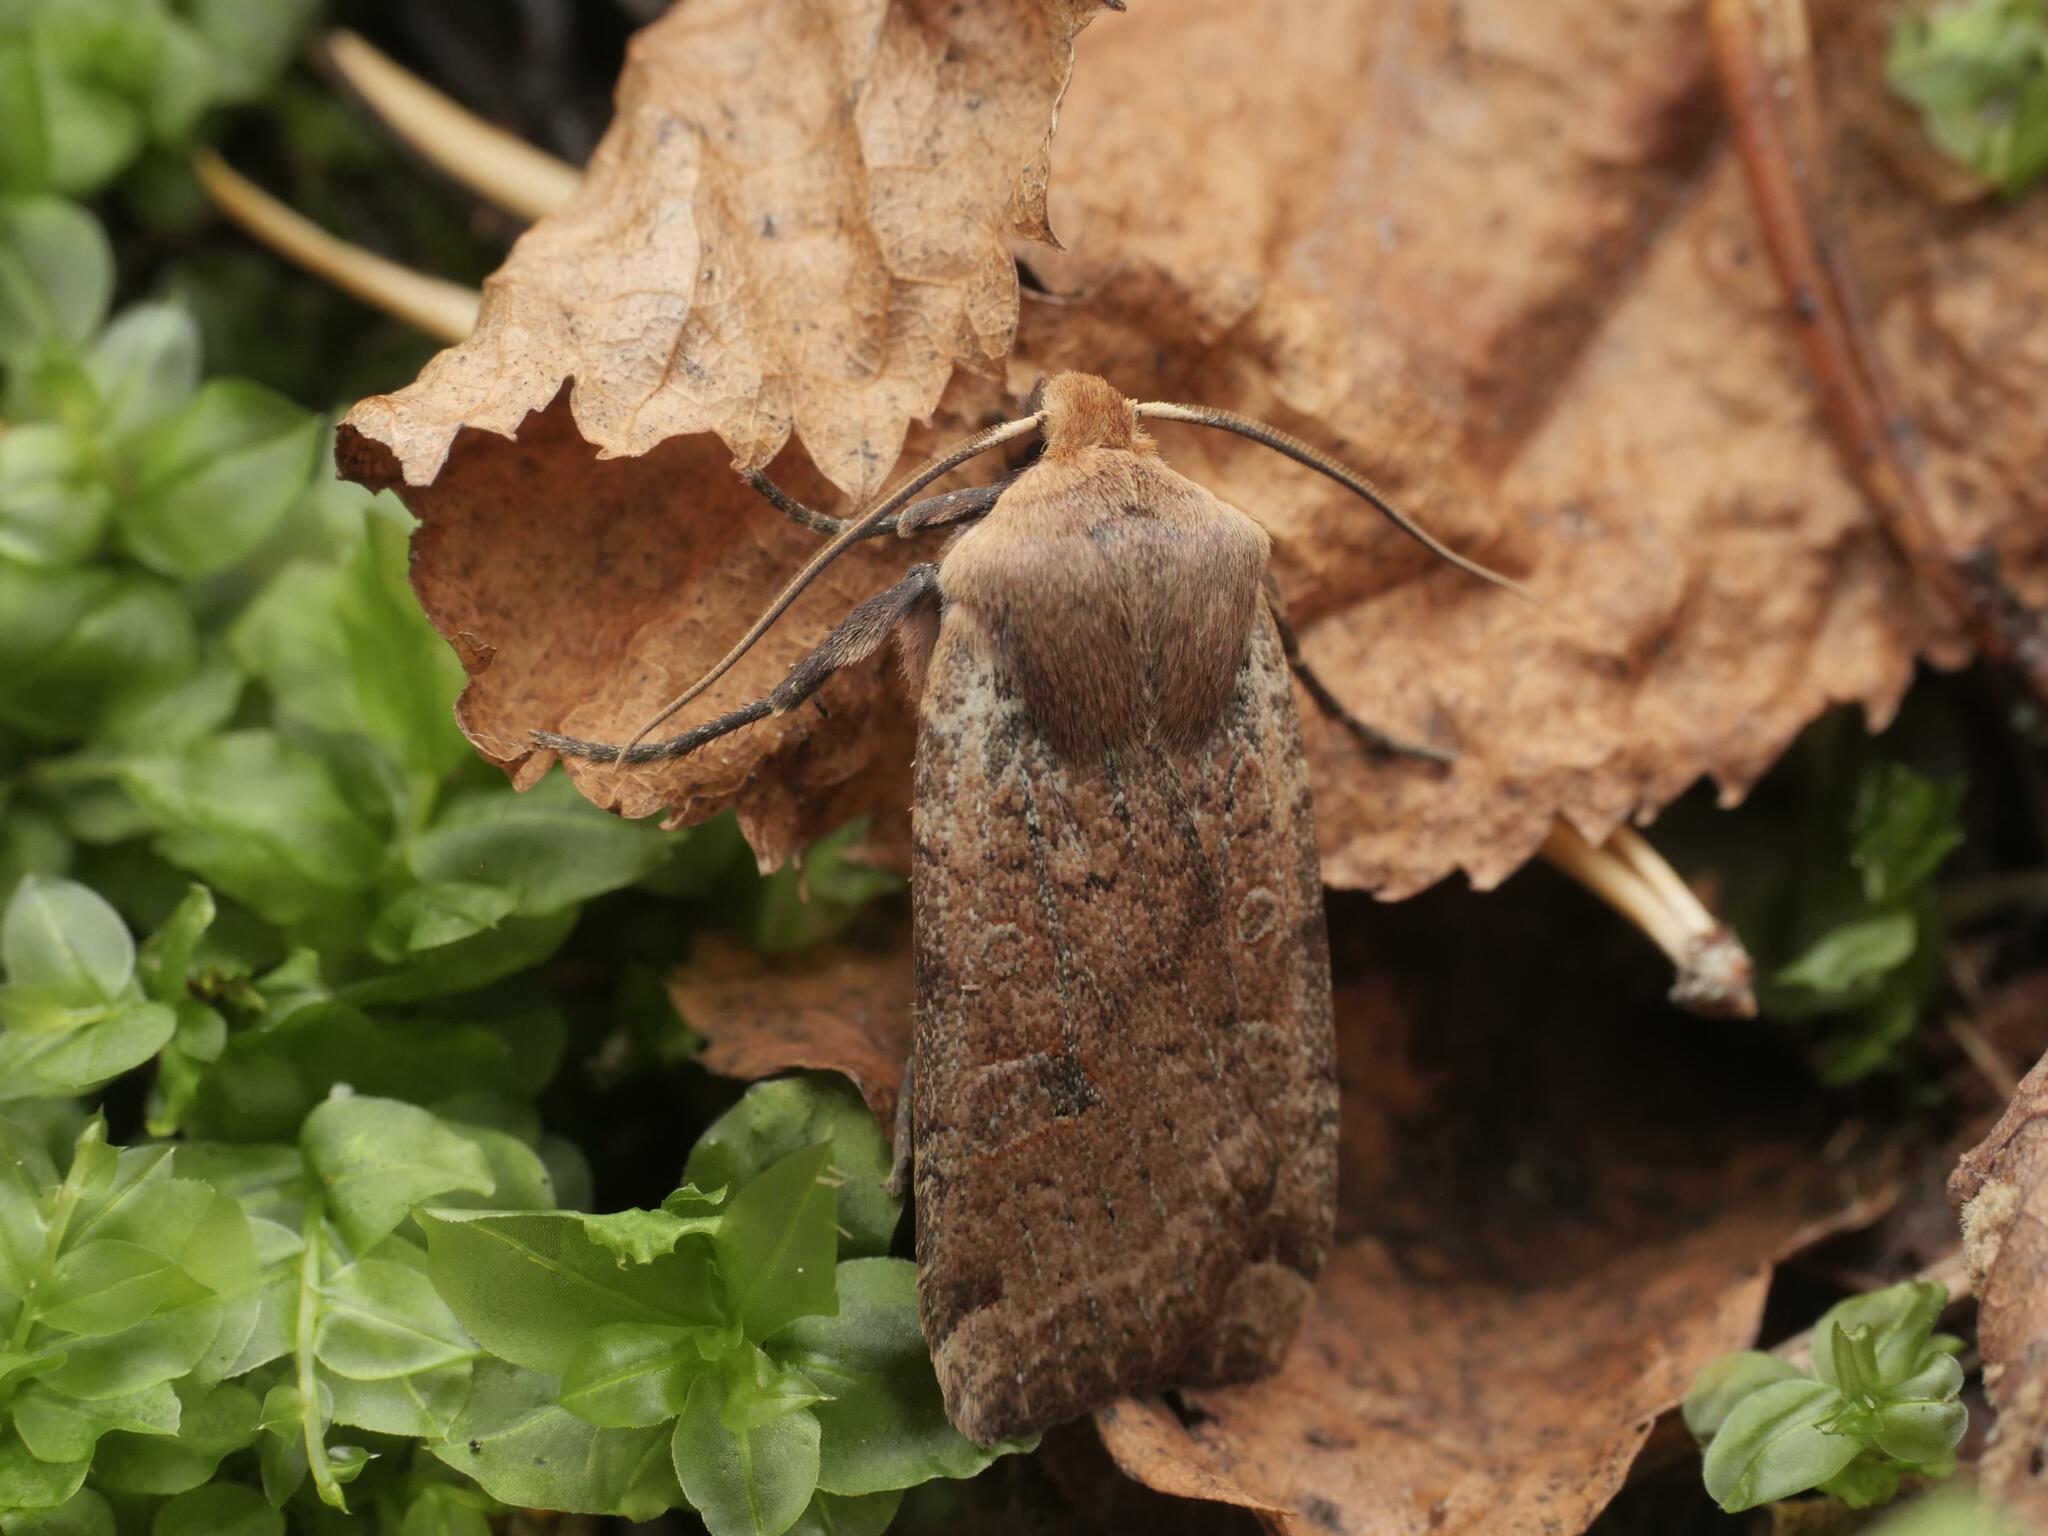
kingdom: Animalia
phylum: Arthropoda
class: Insecta
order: Lepidoptera
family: Noctuidae
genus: Conistra
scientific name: Conistra erythrocephala
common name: Red-headed chestnut
